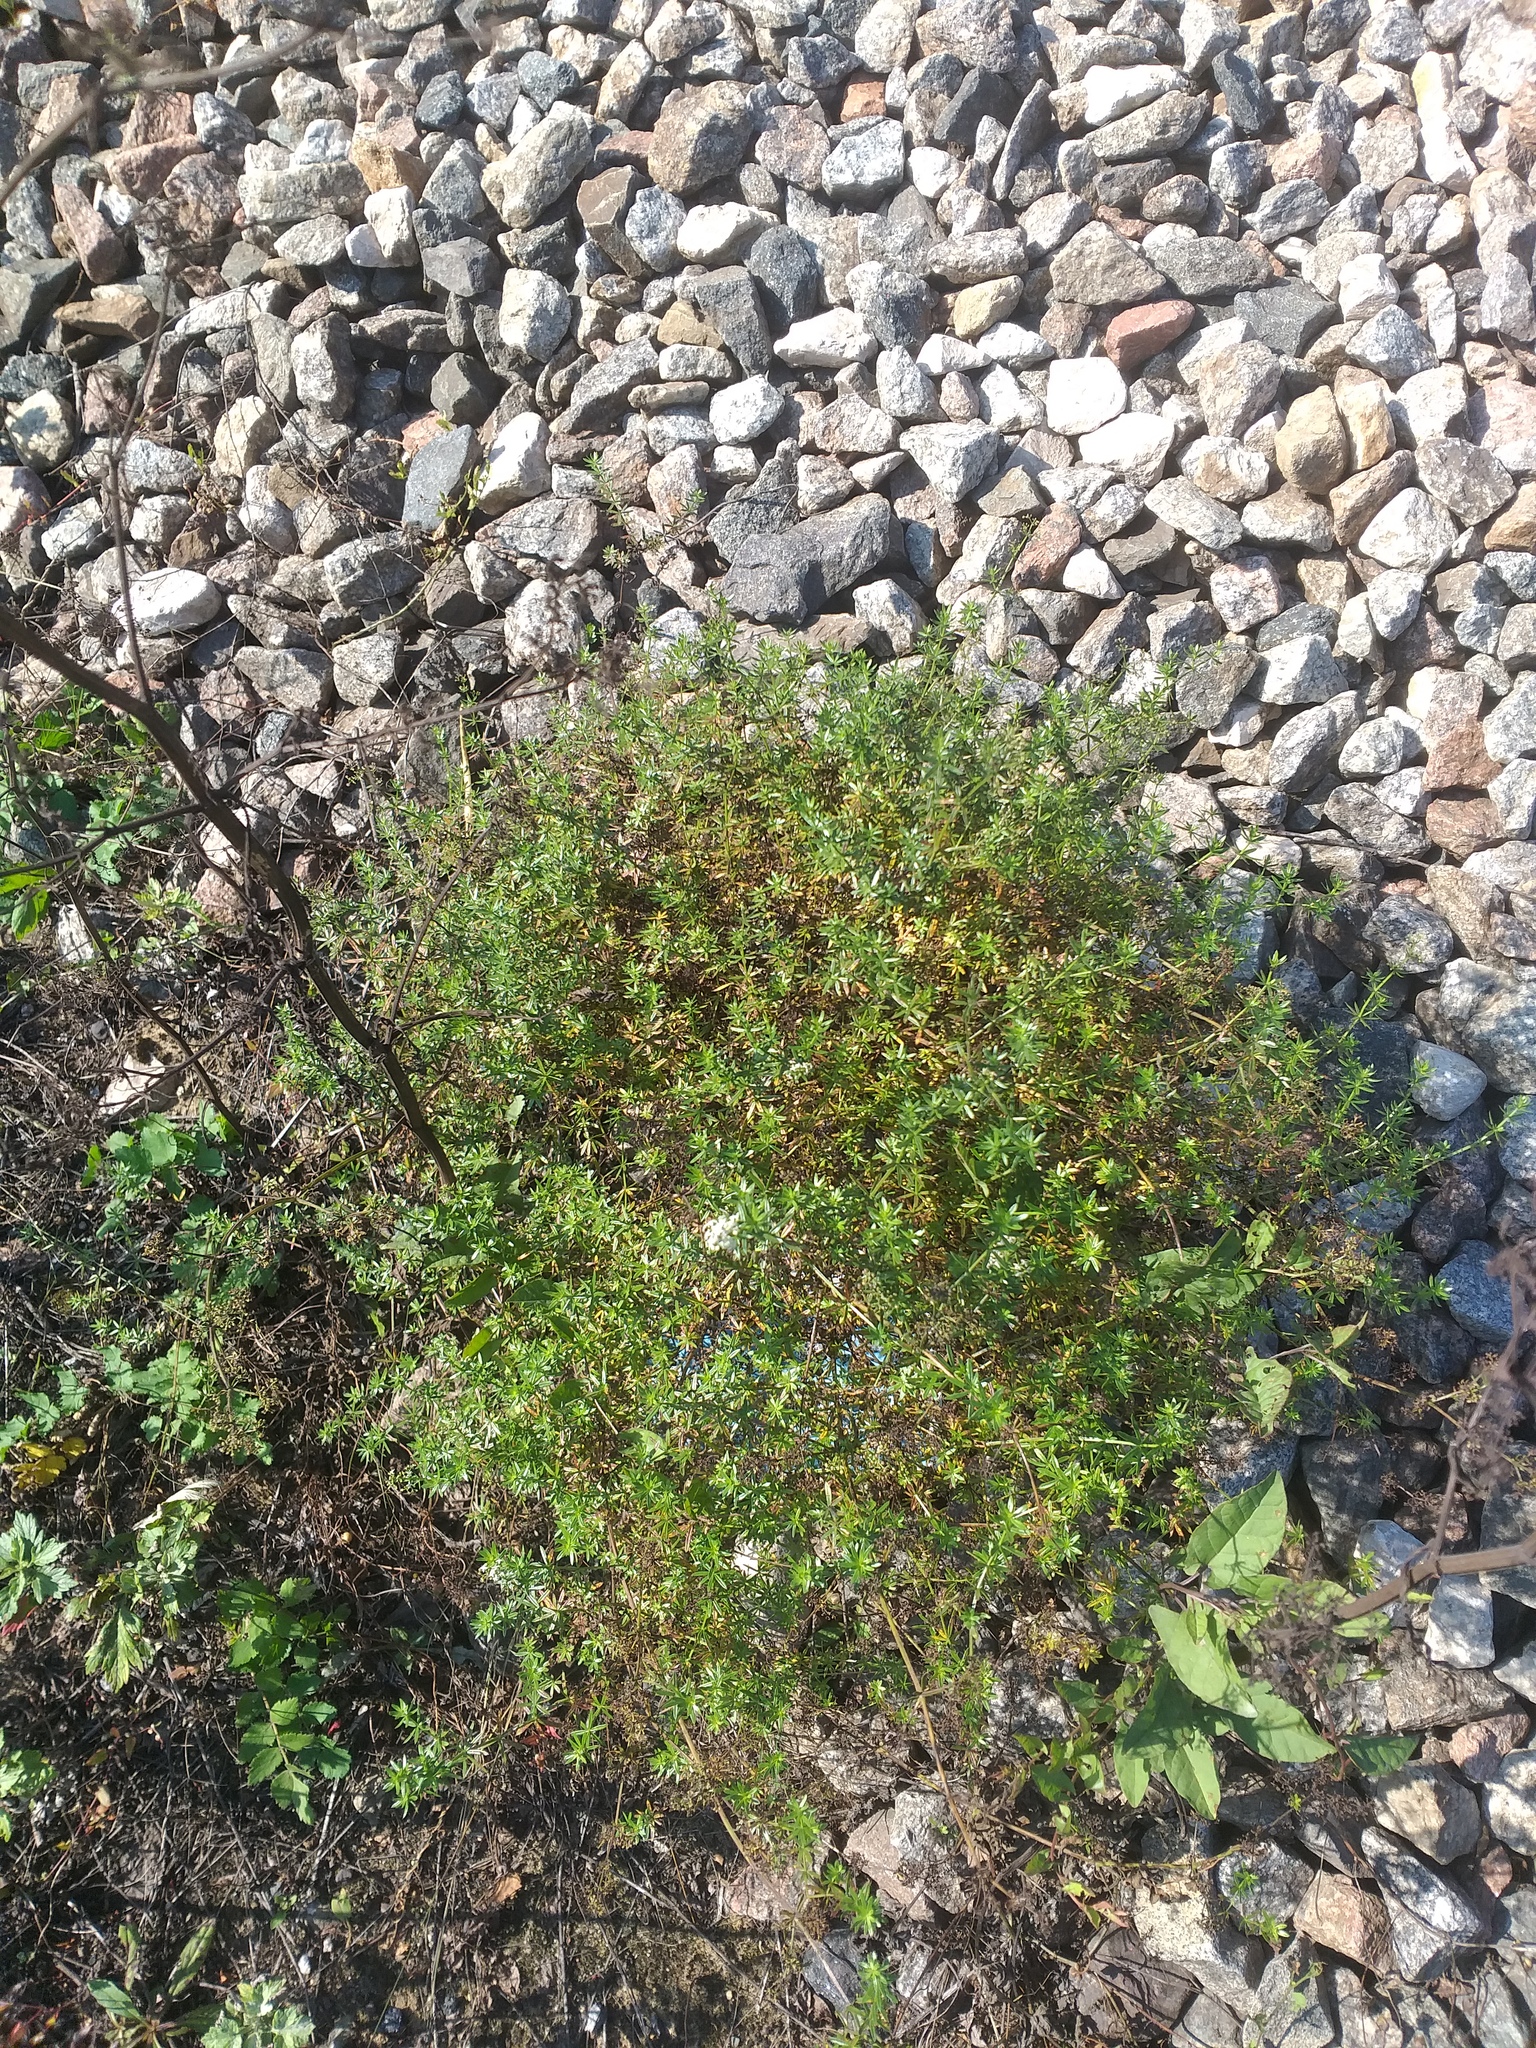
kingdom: Plantae
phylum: Tracheophyta
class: Magnoliopsida
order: Gentianales
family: Rubiaceae
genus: Galium
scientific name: Galium mollugo
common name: Hedge bedstraw
